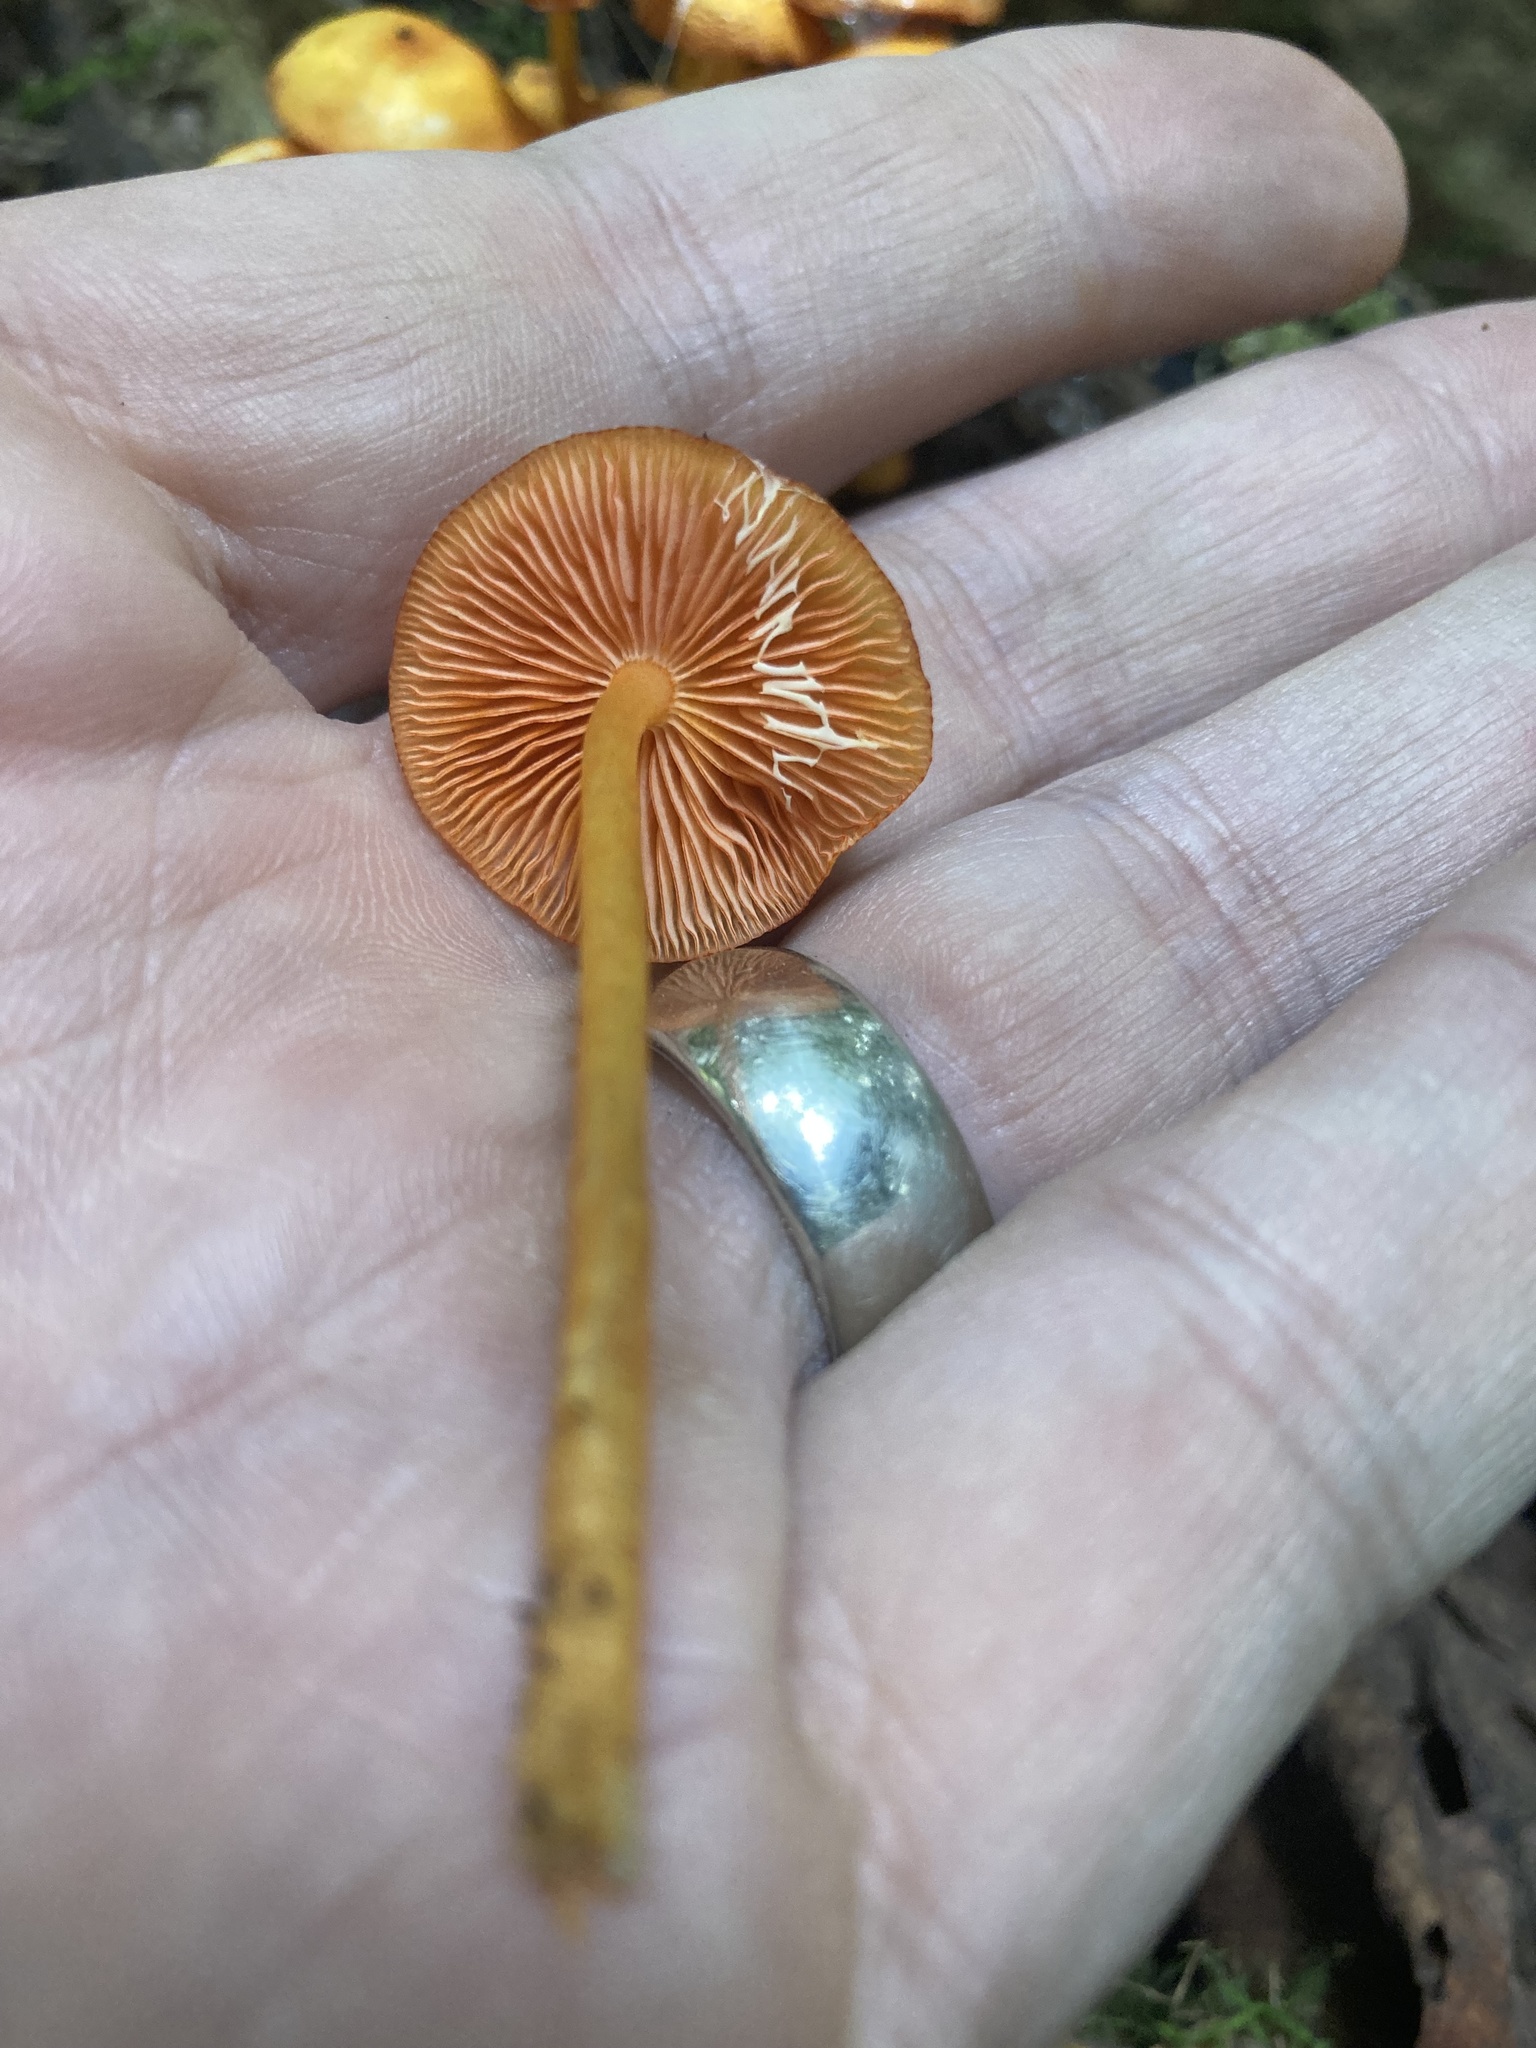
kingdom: Fungi
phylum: Basidiomycota
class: Agaricomycetes
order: Agaricales
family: Mycenaceae
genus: Mycena
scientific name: Mycena leaiana
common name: Orange mycena
